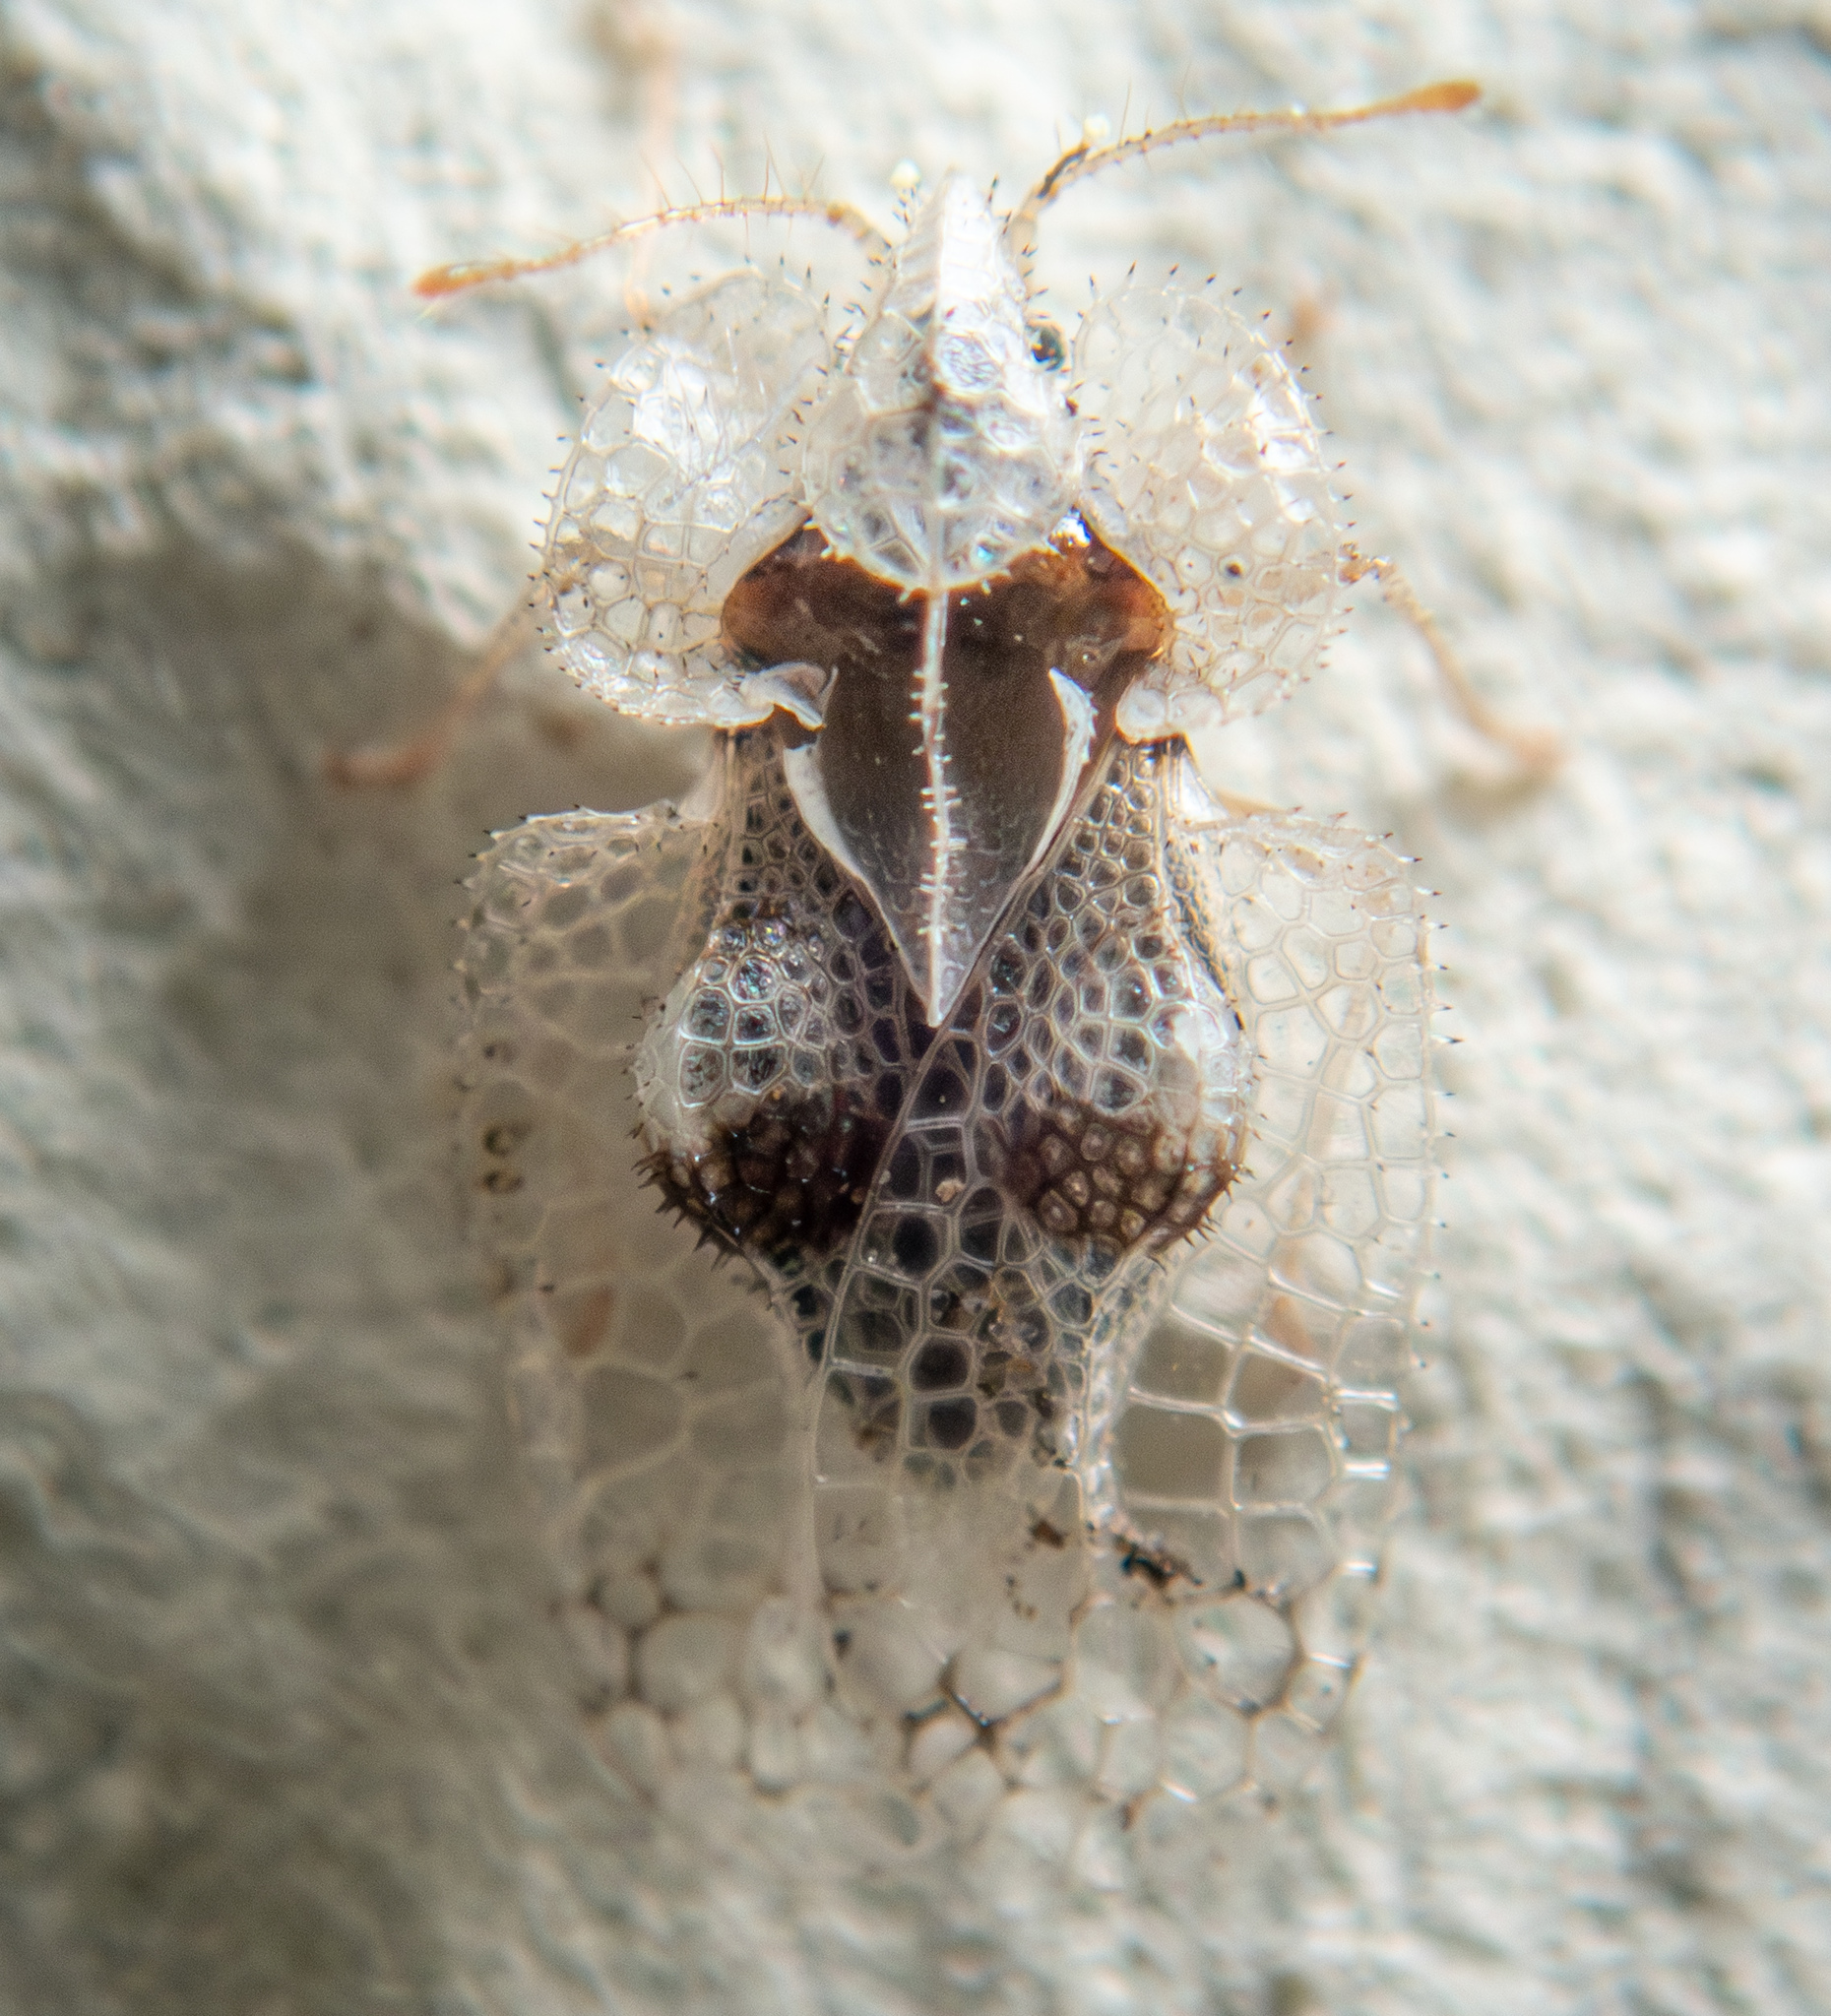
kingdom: Animalia
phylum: Arthropoda
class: Insecta
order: Hemiptera
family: Tingidae
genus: Corythucha
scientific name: Corythucha ciliata
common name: Sycamore lace bug
